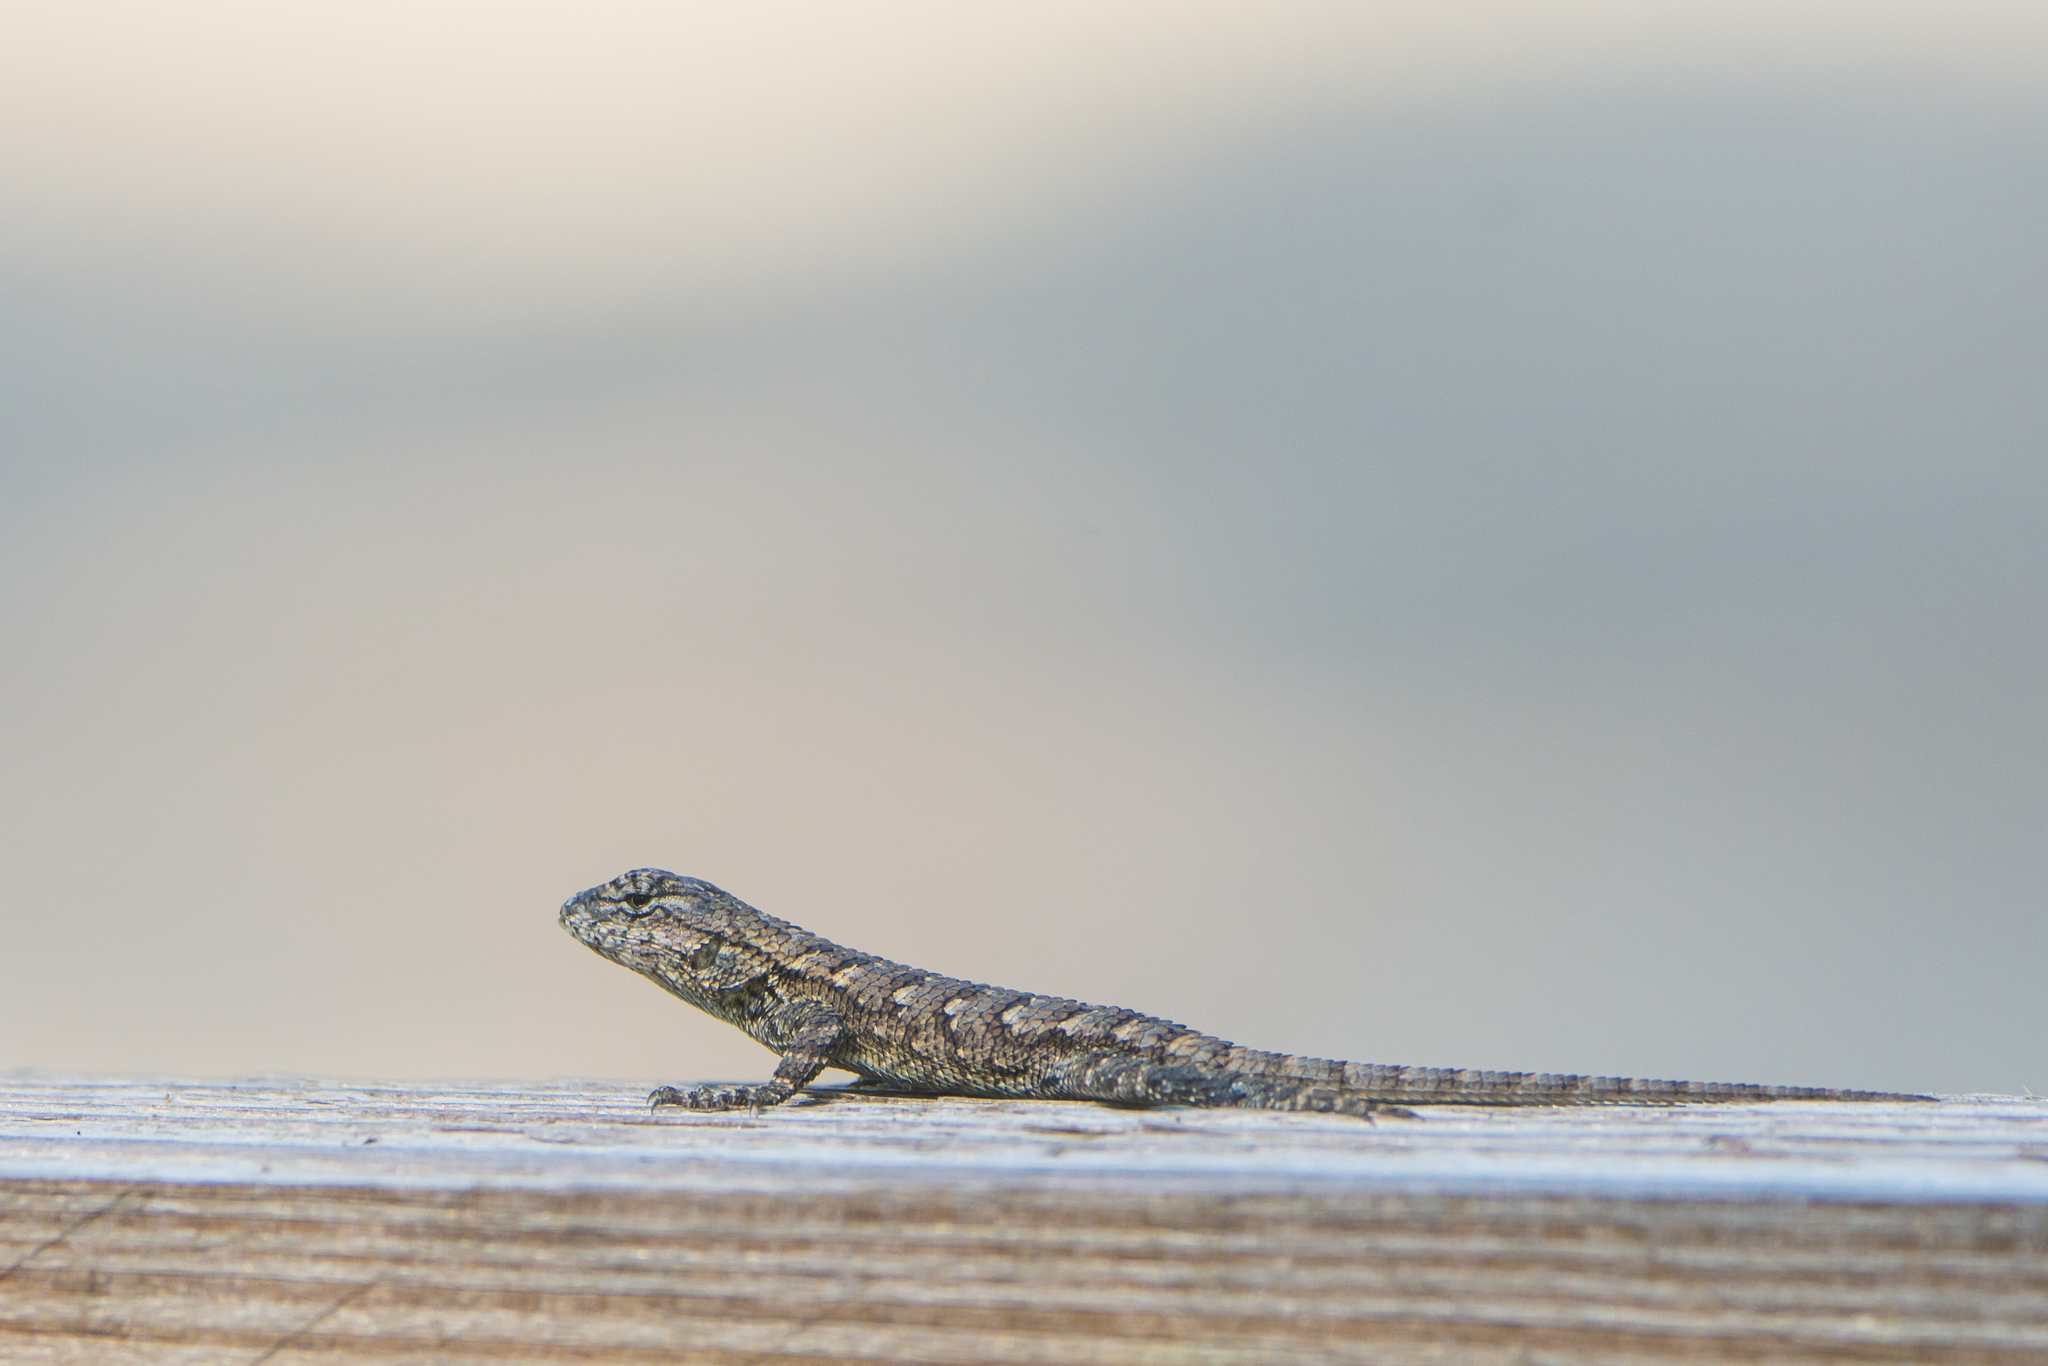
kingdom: Animalia
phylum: Chordata
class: Squamata
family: Phrynosomatidae
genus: Sceloporus
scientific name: Sceloporus undulatus
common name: Eastern fence lizard
